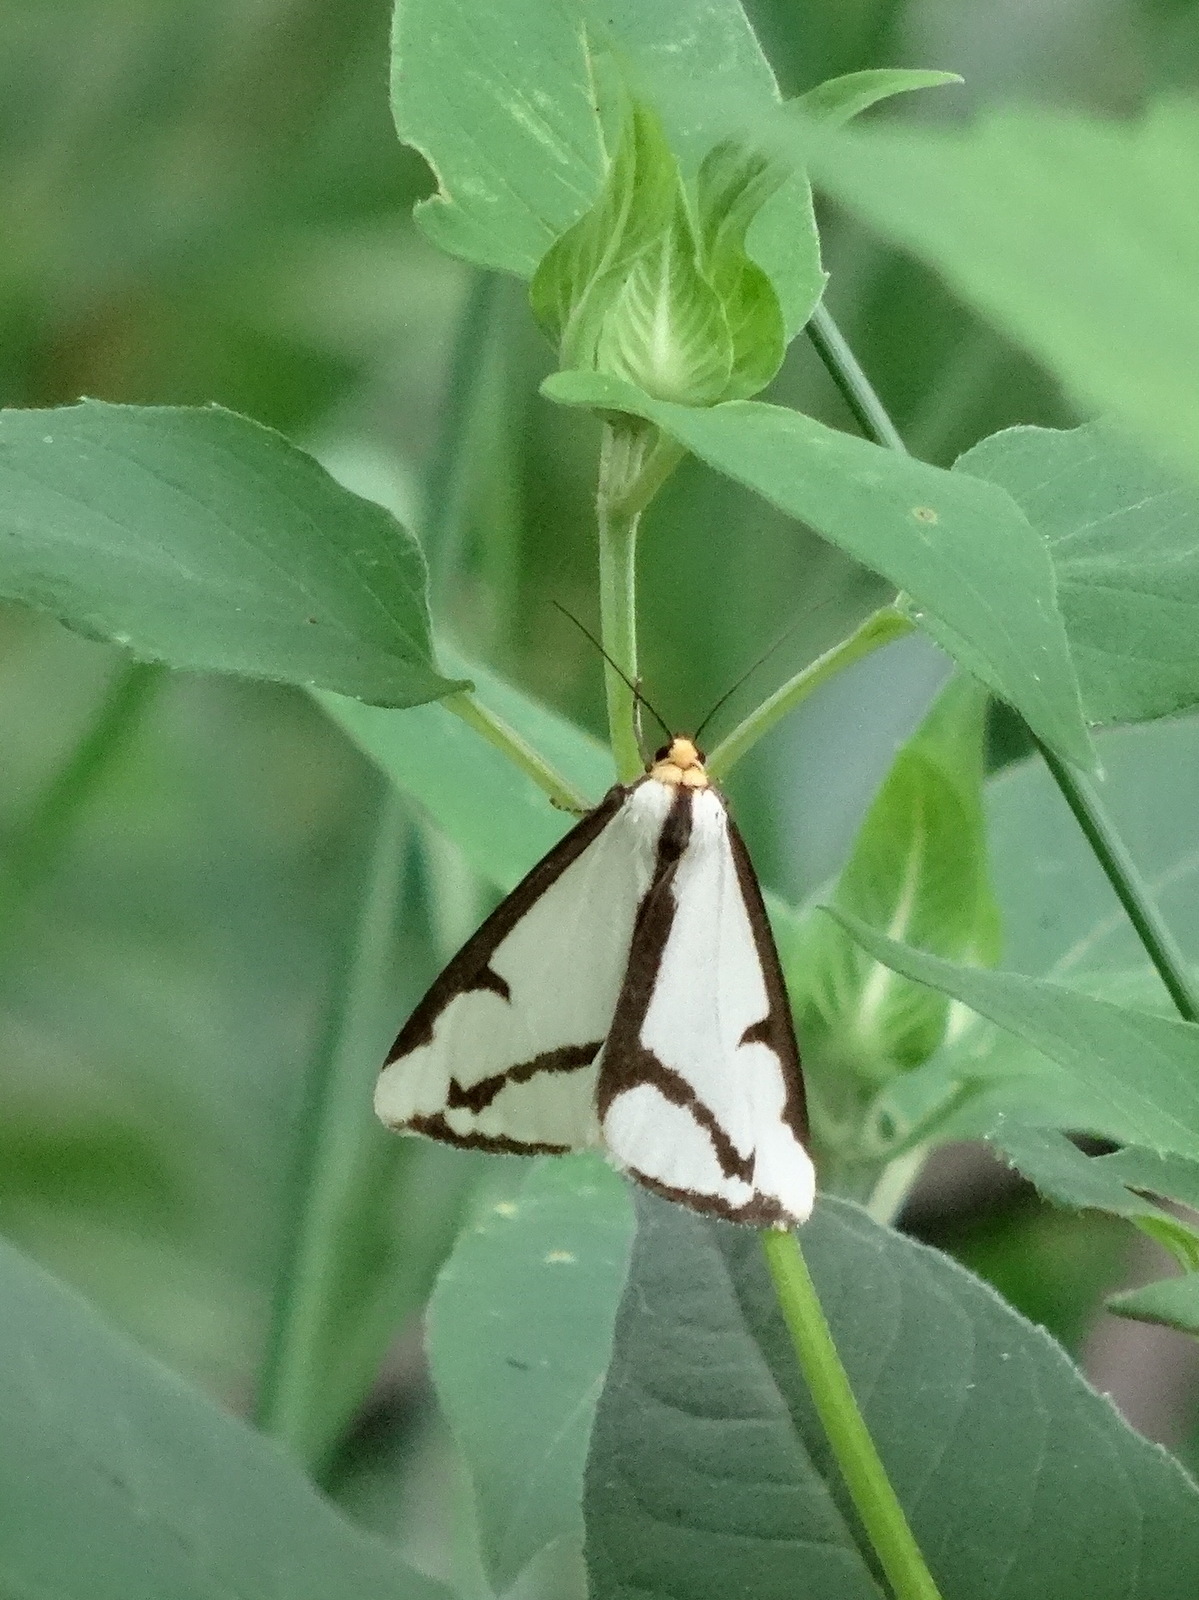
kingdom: Animalia
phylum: Arthropoda
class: Insecta
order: Lepidoptera
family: Erebidae
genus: Haploa
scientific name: Haploa lecontei
